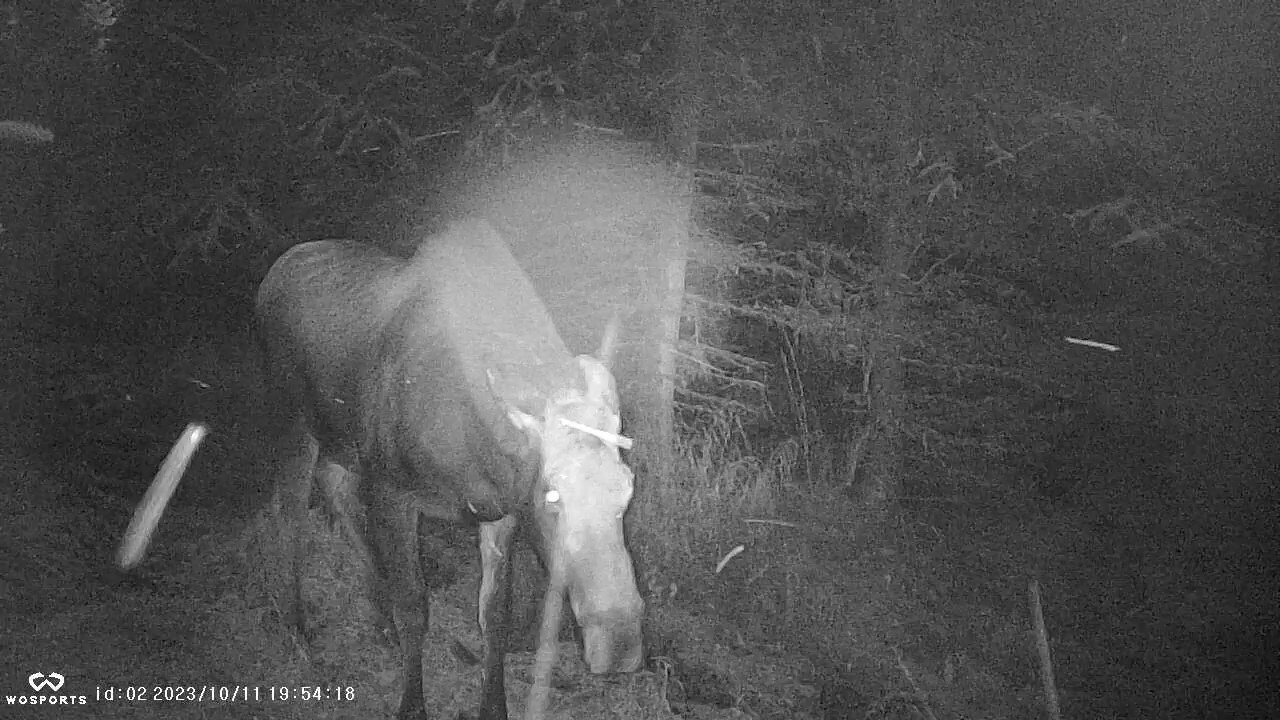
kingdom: Animalia
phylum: Chordata
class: Mammalia
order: Artiodactyla
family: Cervidae
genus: Alces
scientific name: Alces alces
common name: Moose
